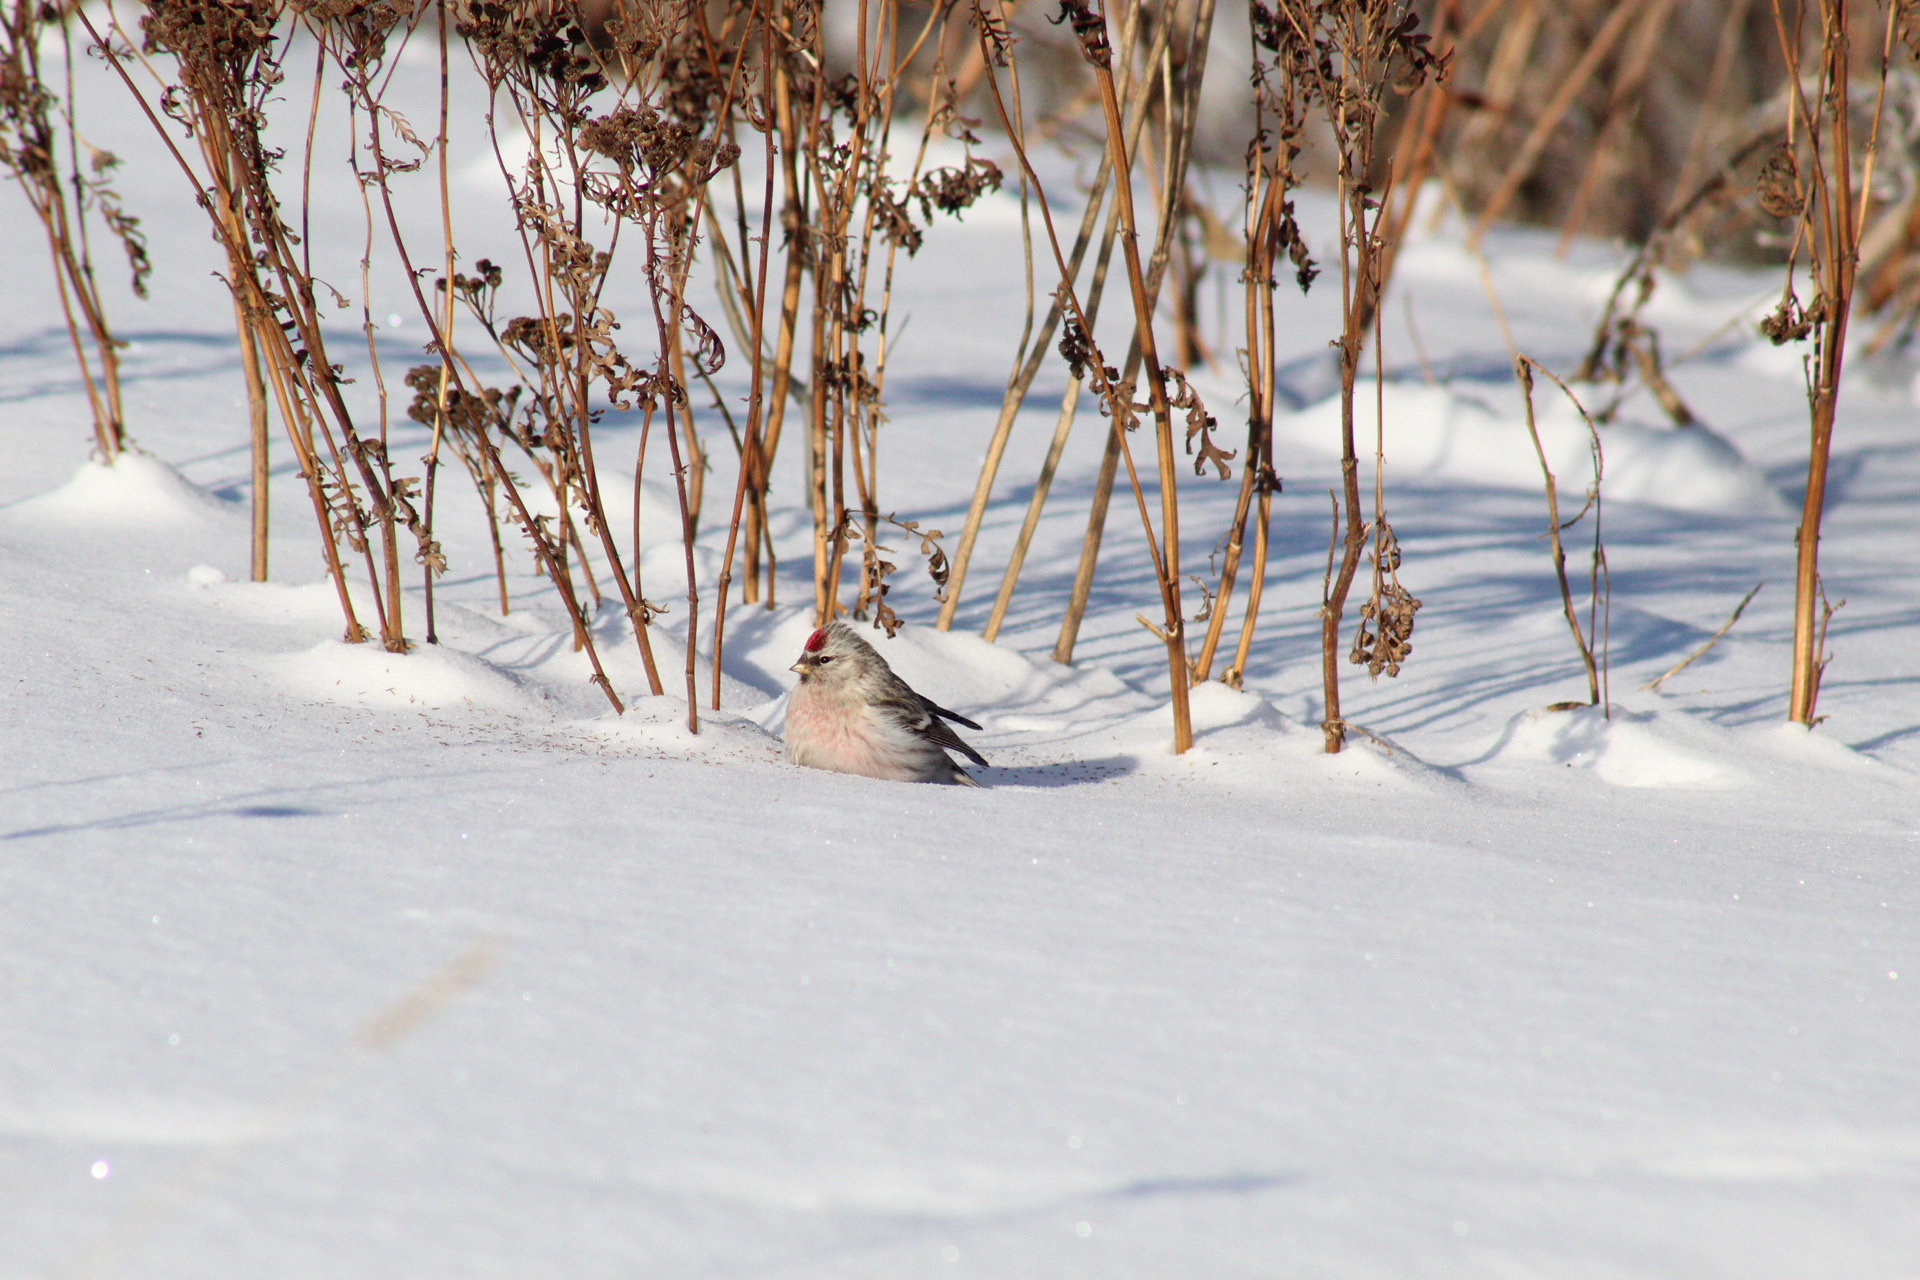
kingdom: Animalia
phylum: Chordata
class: Aves
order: Passeriformes
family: Fringillidae
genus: Acanthis
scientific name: Acanthis flammea
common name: Common redpoll
